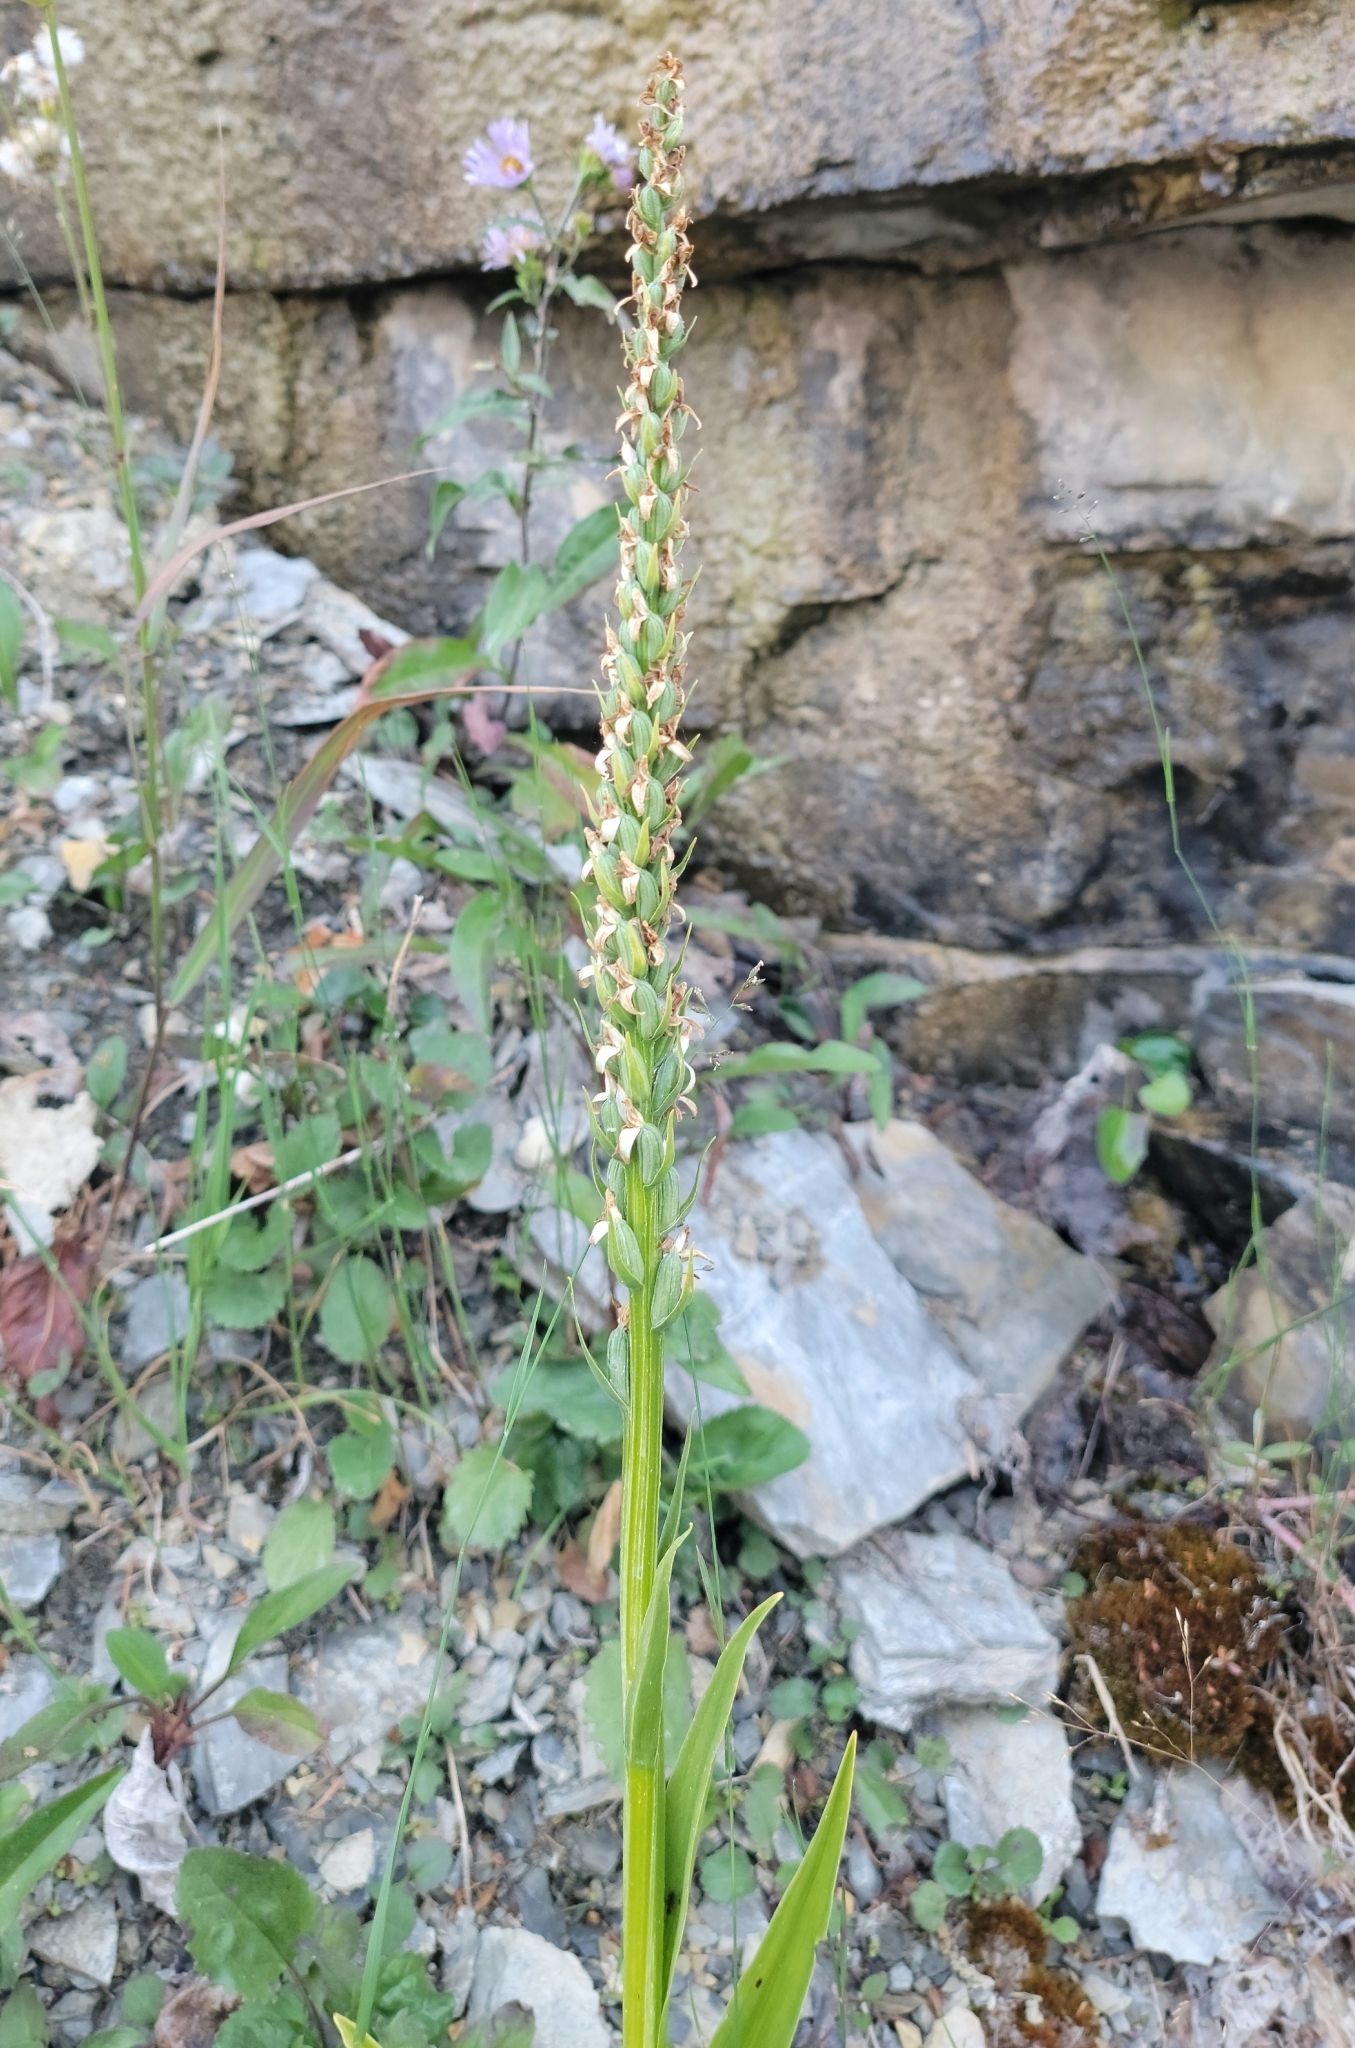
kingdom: Plantae
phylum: Tracheophyta
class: Liliopsida
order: Asparagales
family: Orchidaceae
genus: Platanthera
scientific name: Platanthera dilatata
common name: Bog candles
